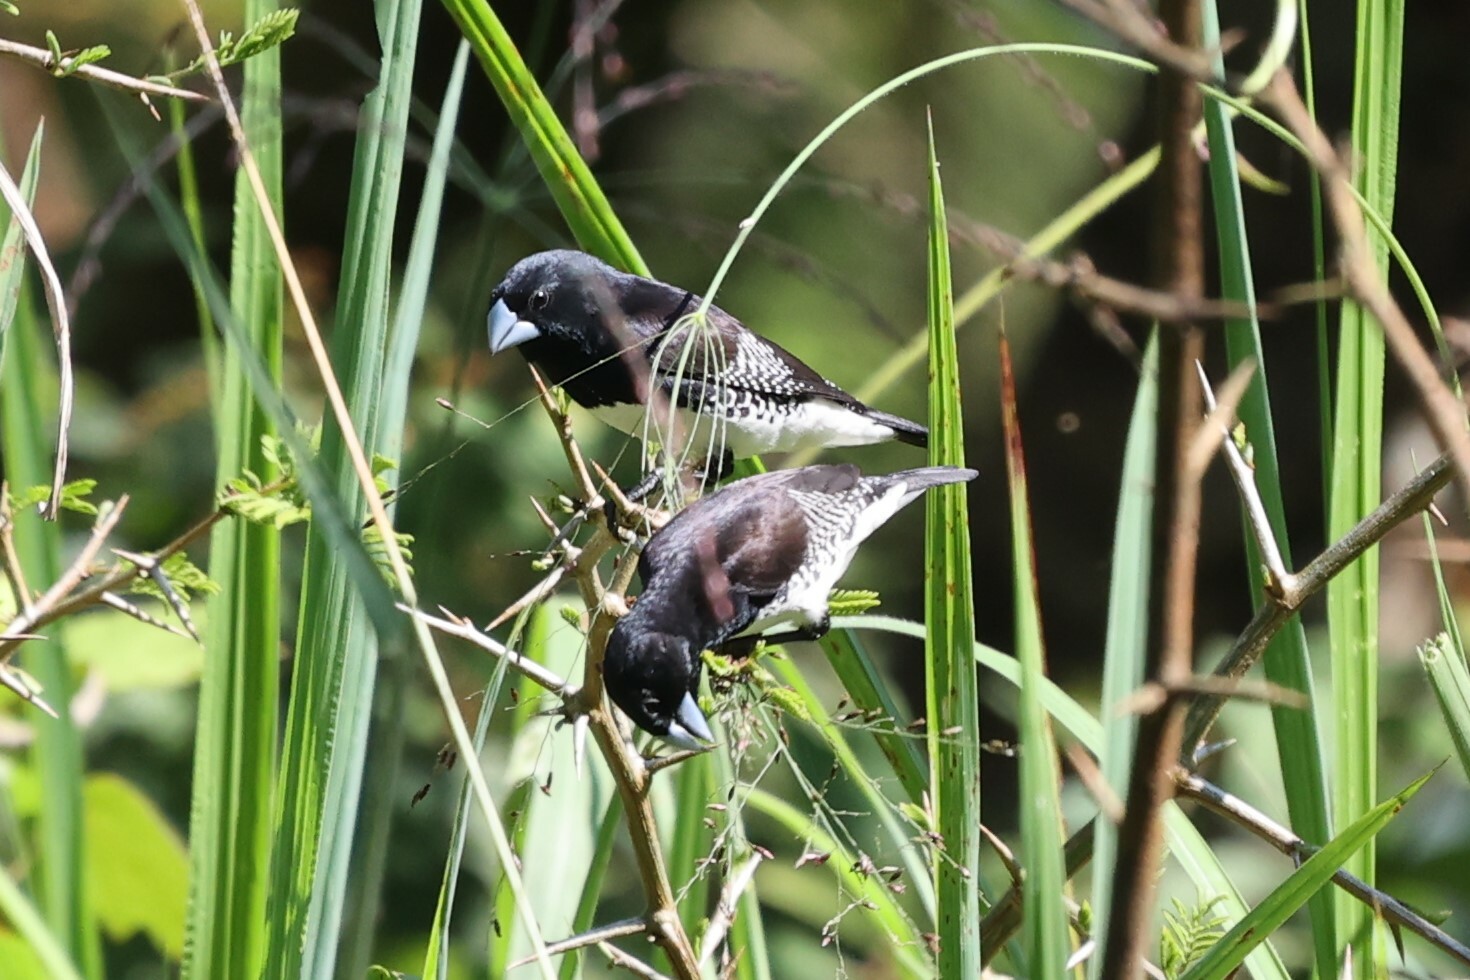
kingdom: Animalia
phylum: Chordata
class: Aves
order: Passeriformes
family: Estrildidae
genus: Lonchura
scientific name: Lonchura bicolor
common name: Black-and-white mannikin
